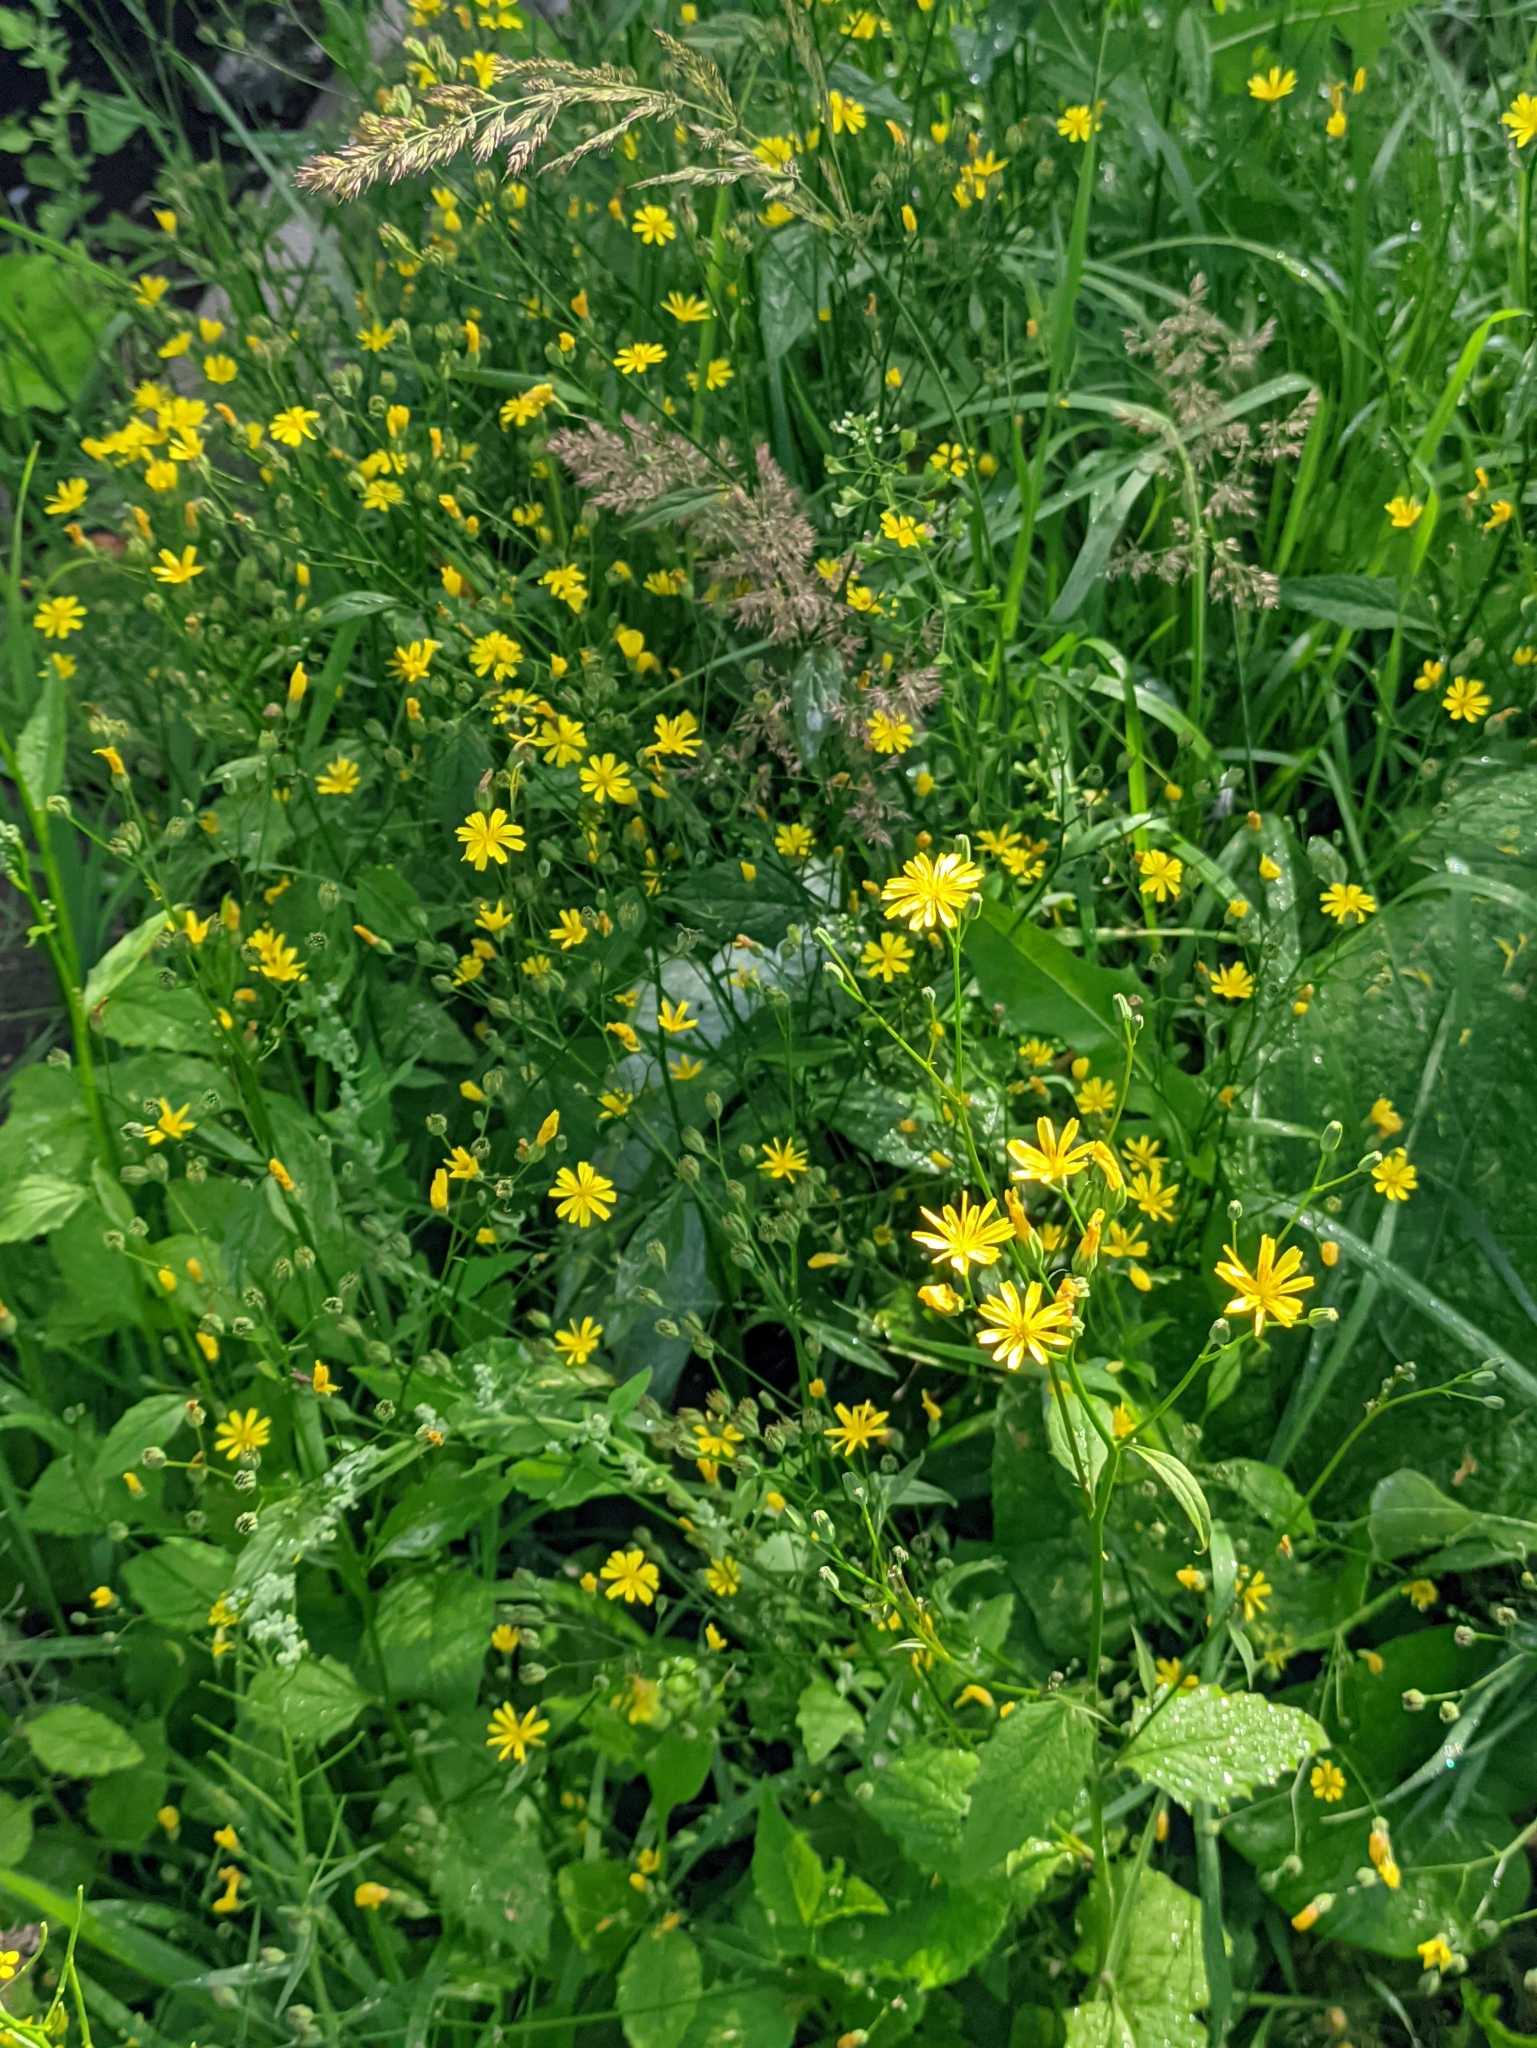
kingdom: Plantae
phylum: Tracheophyta
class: Magnoliopsida
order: Asterales
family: Asteraceae
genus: Lapsana
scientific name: Lapsana communis
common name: Nipplewort
